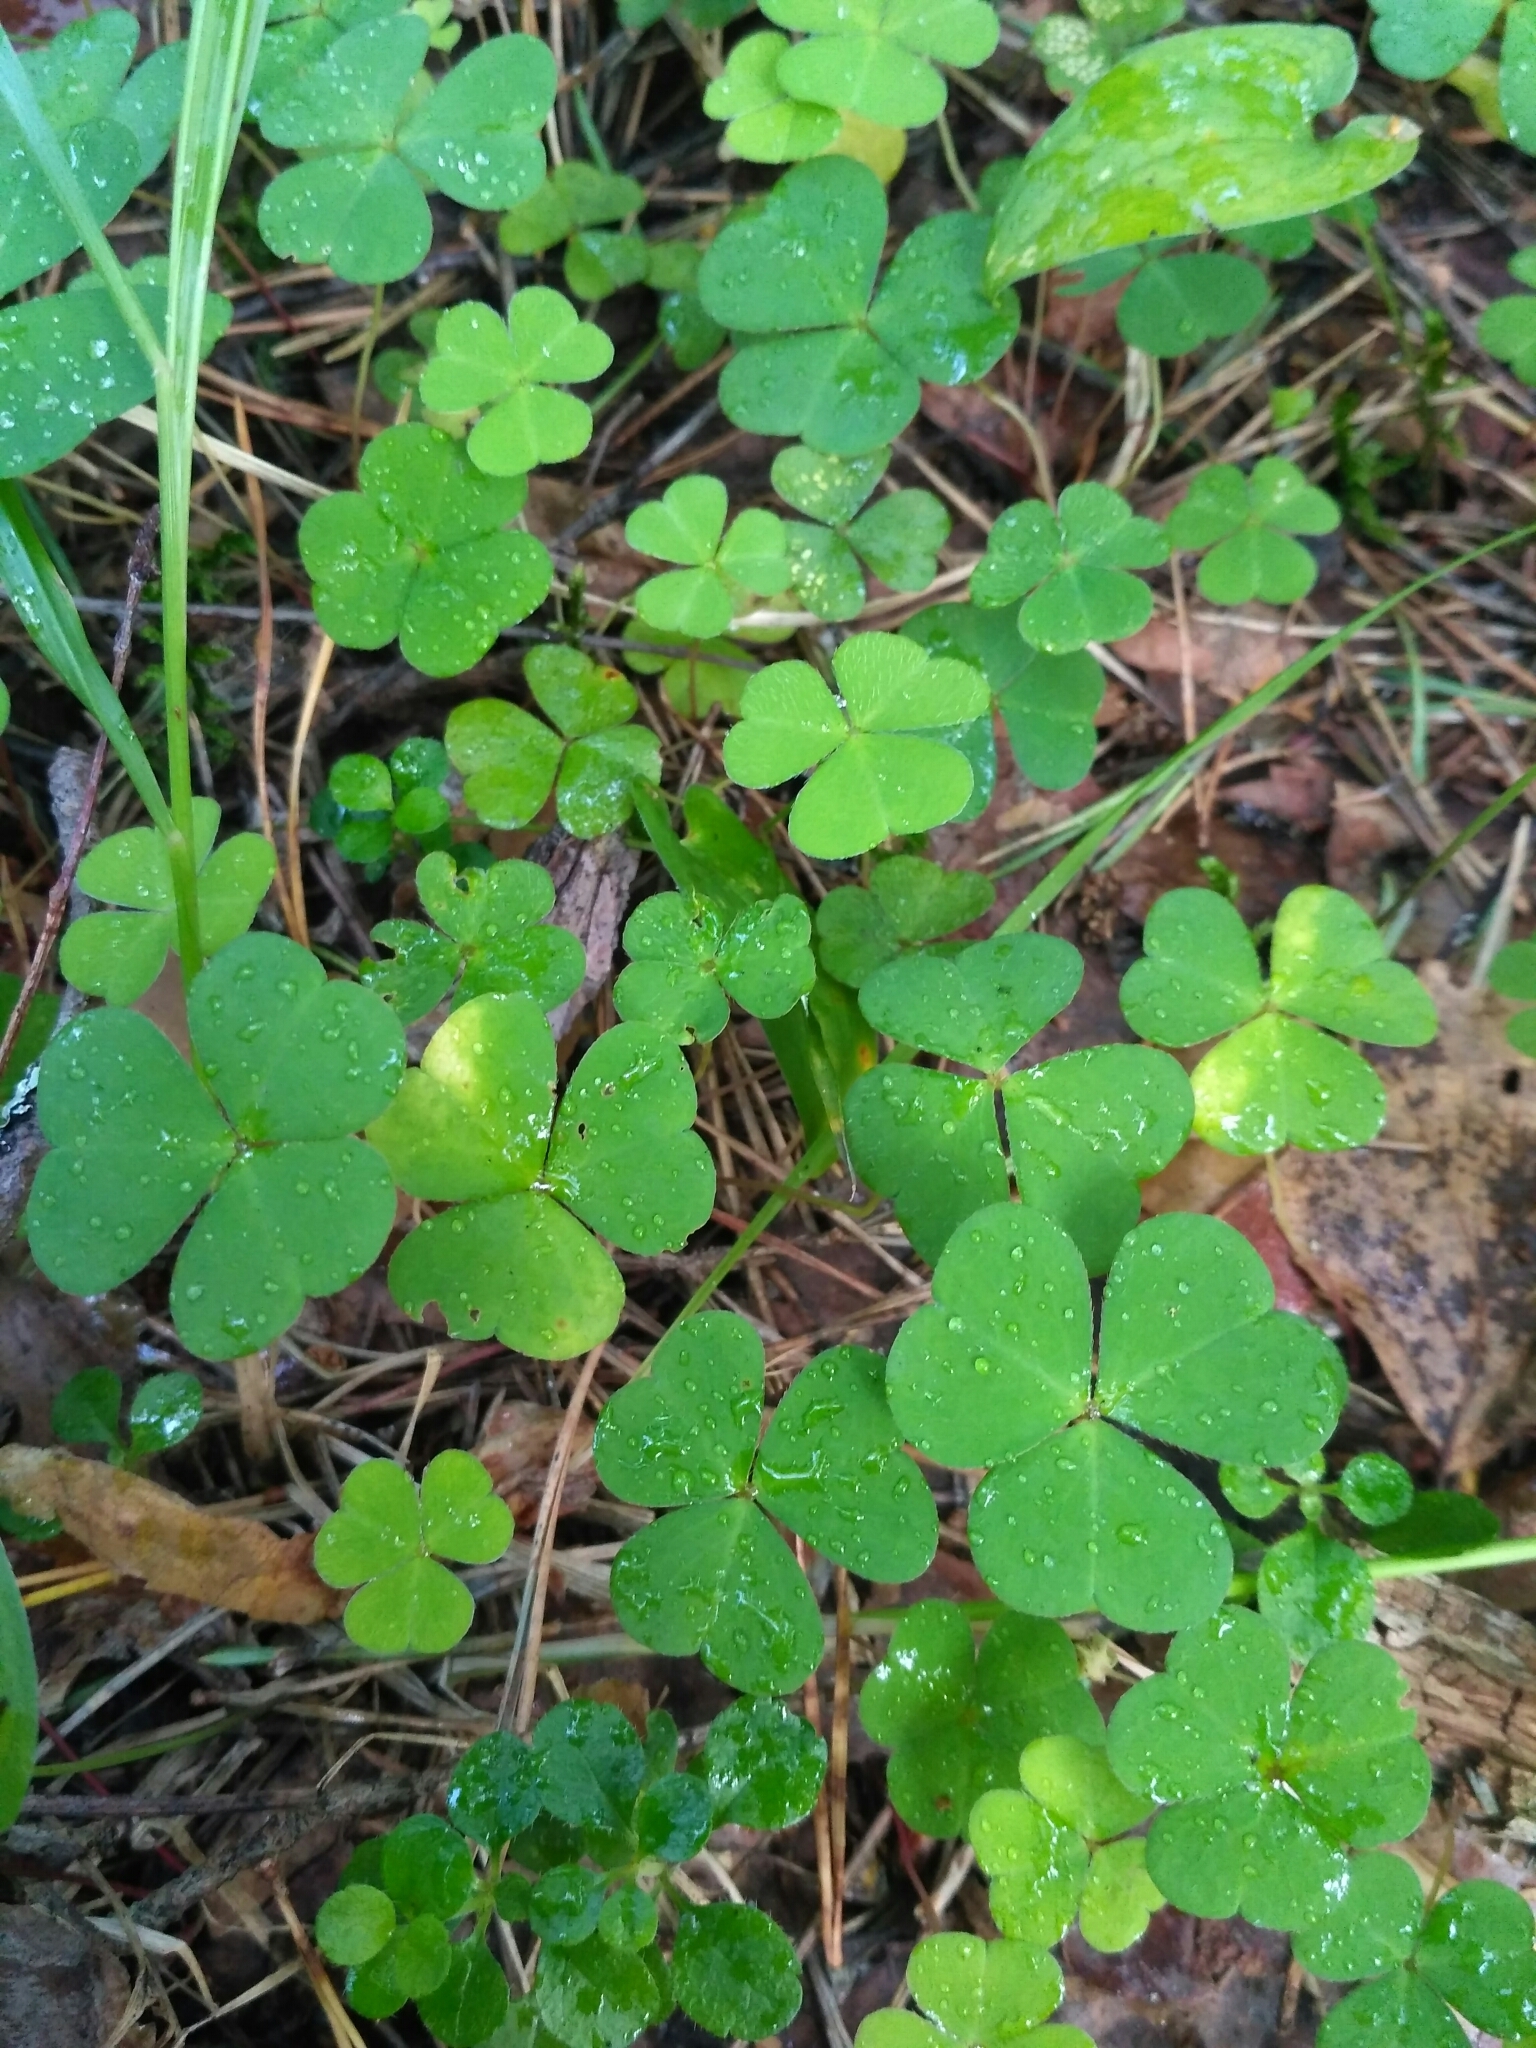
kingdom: Plantae
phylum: Tracheophyta
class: Magnoliopsida
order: Oxalidales
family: Oxalidaceae
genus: Oxalis
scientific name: Oxalis acetosella
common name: Wood-sorrel
